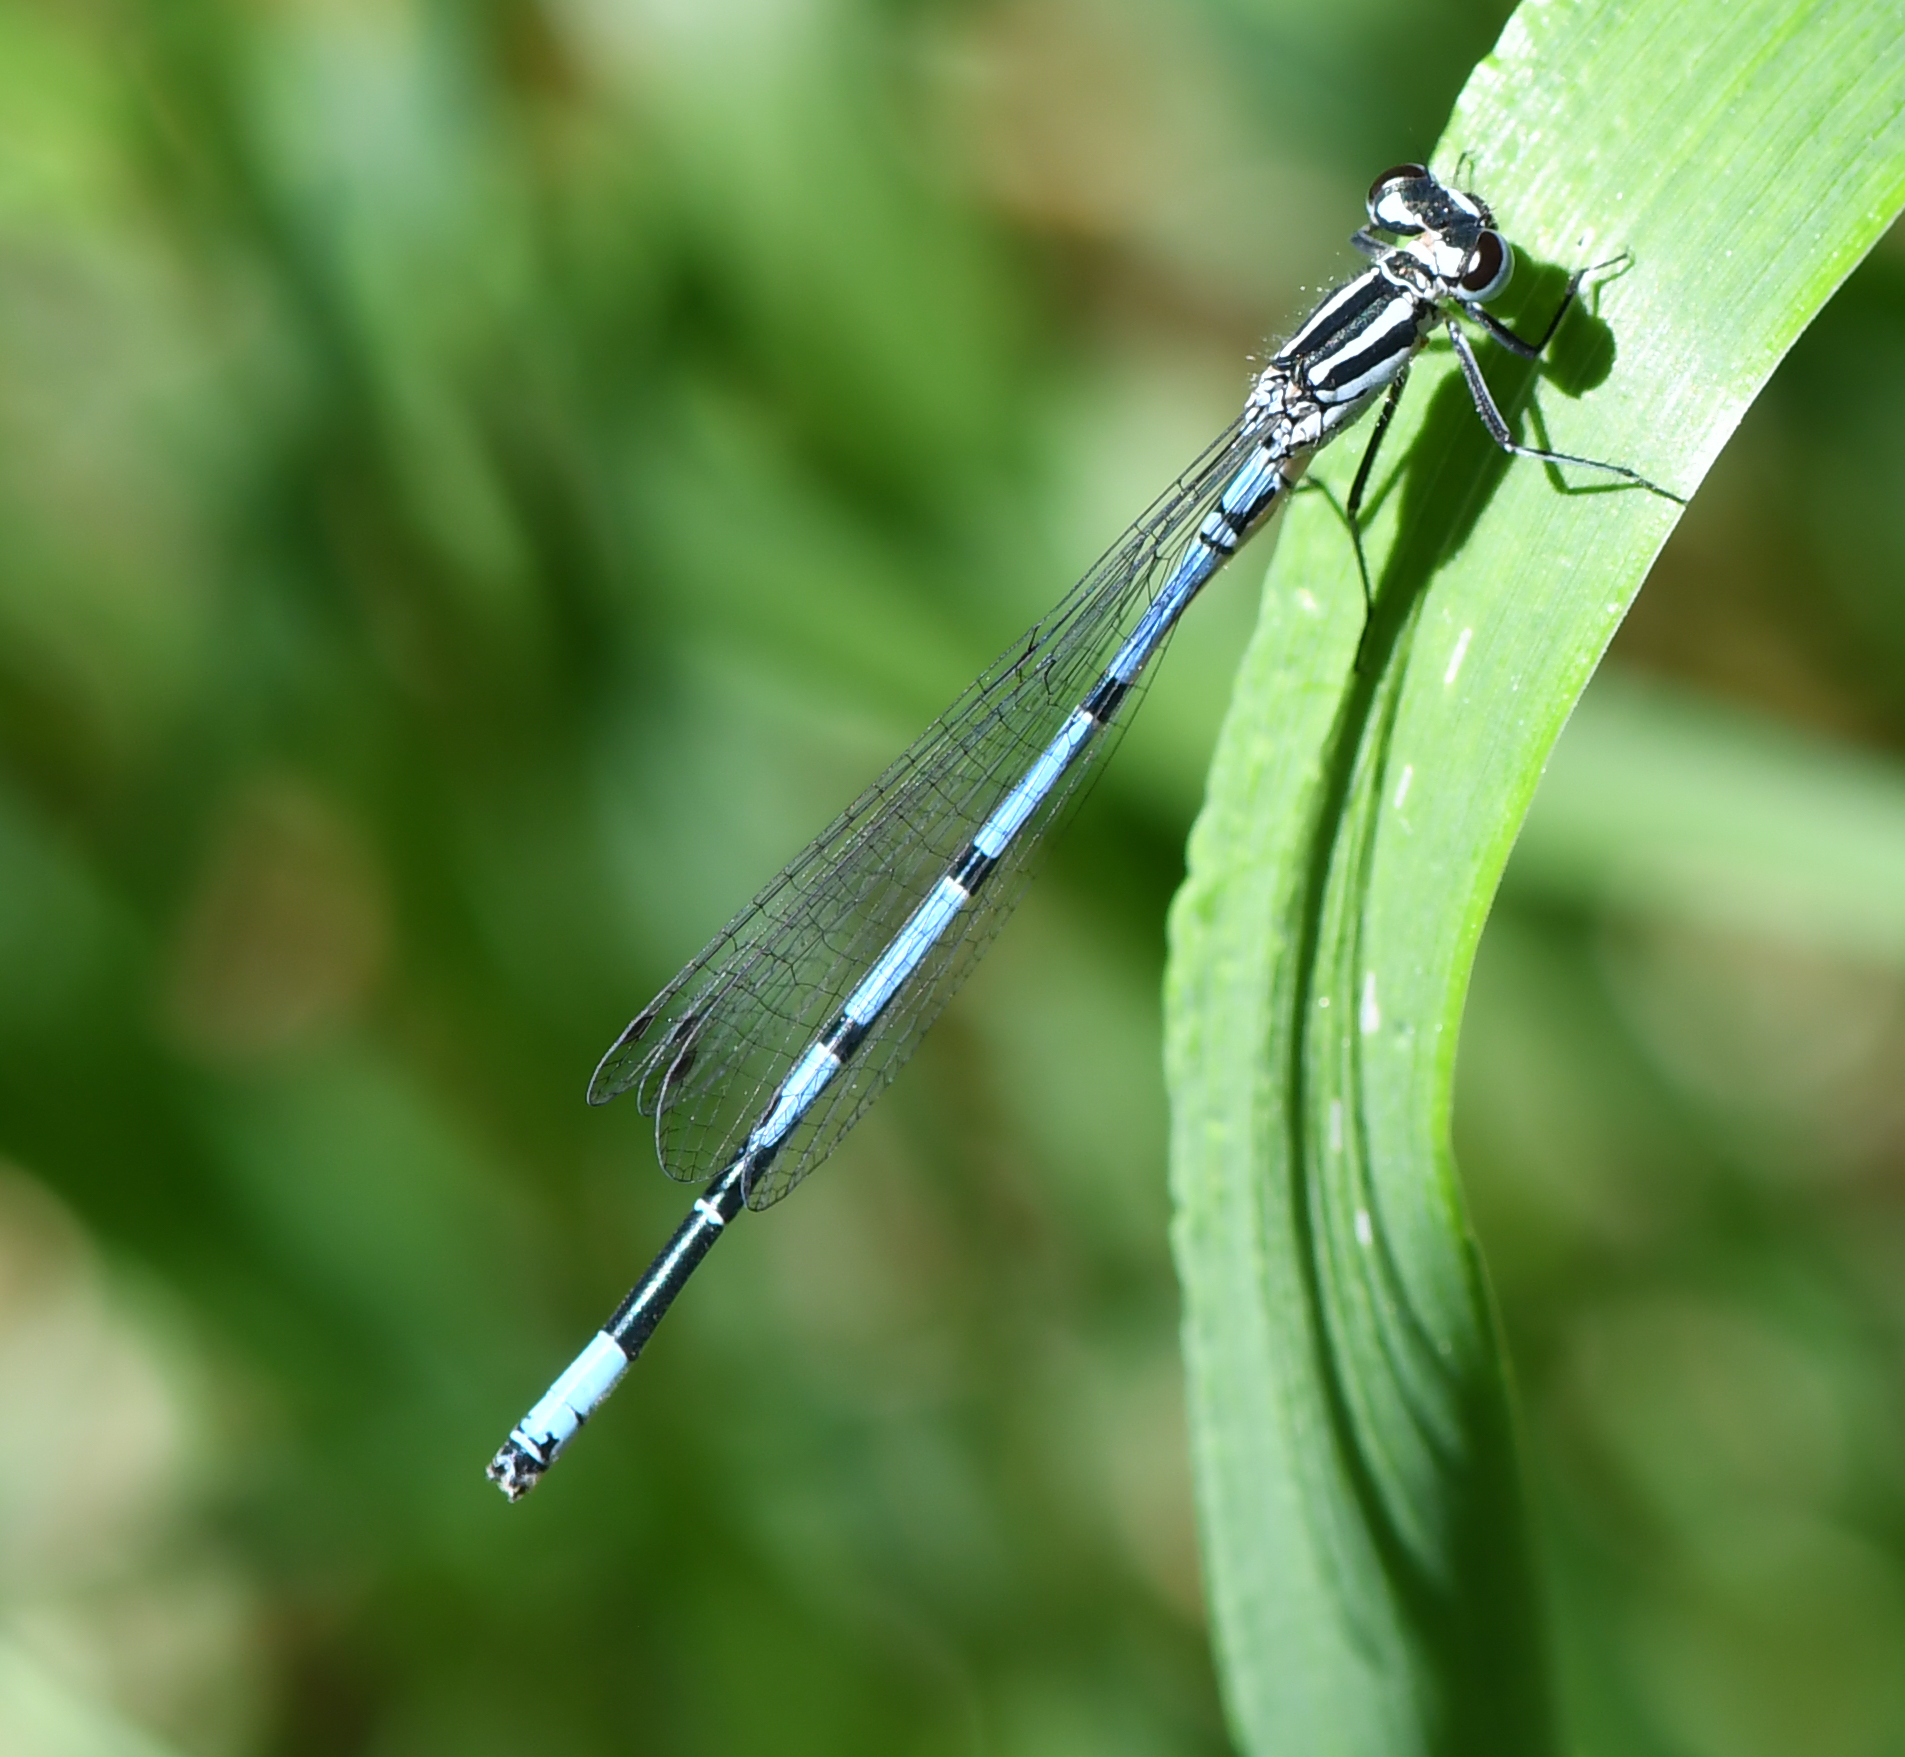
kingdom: Animalia
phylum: Arthropoda
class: Insecta
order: Odonata
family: Coenagrionidae
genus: Coenagrion
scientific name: Coenagrion puella
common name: Azure damselfly
